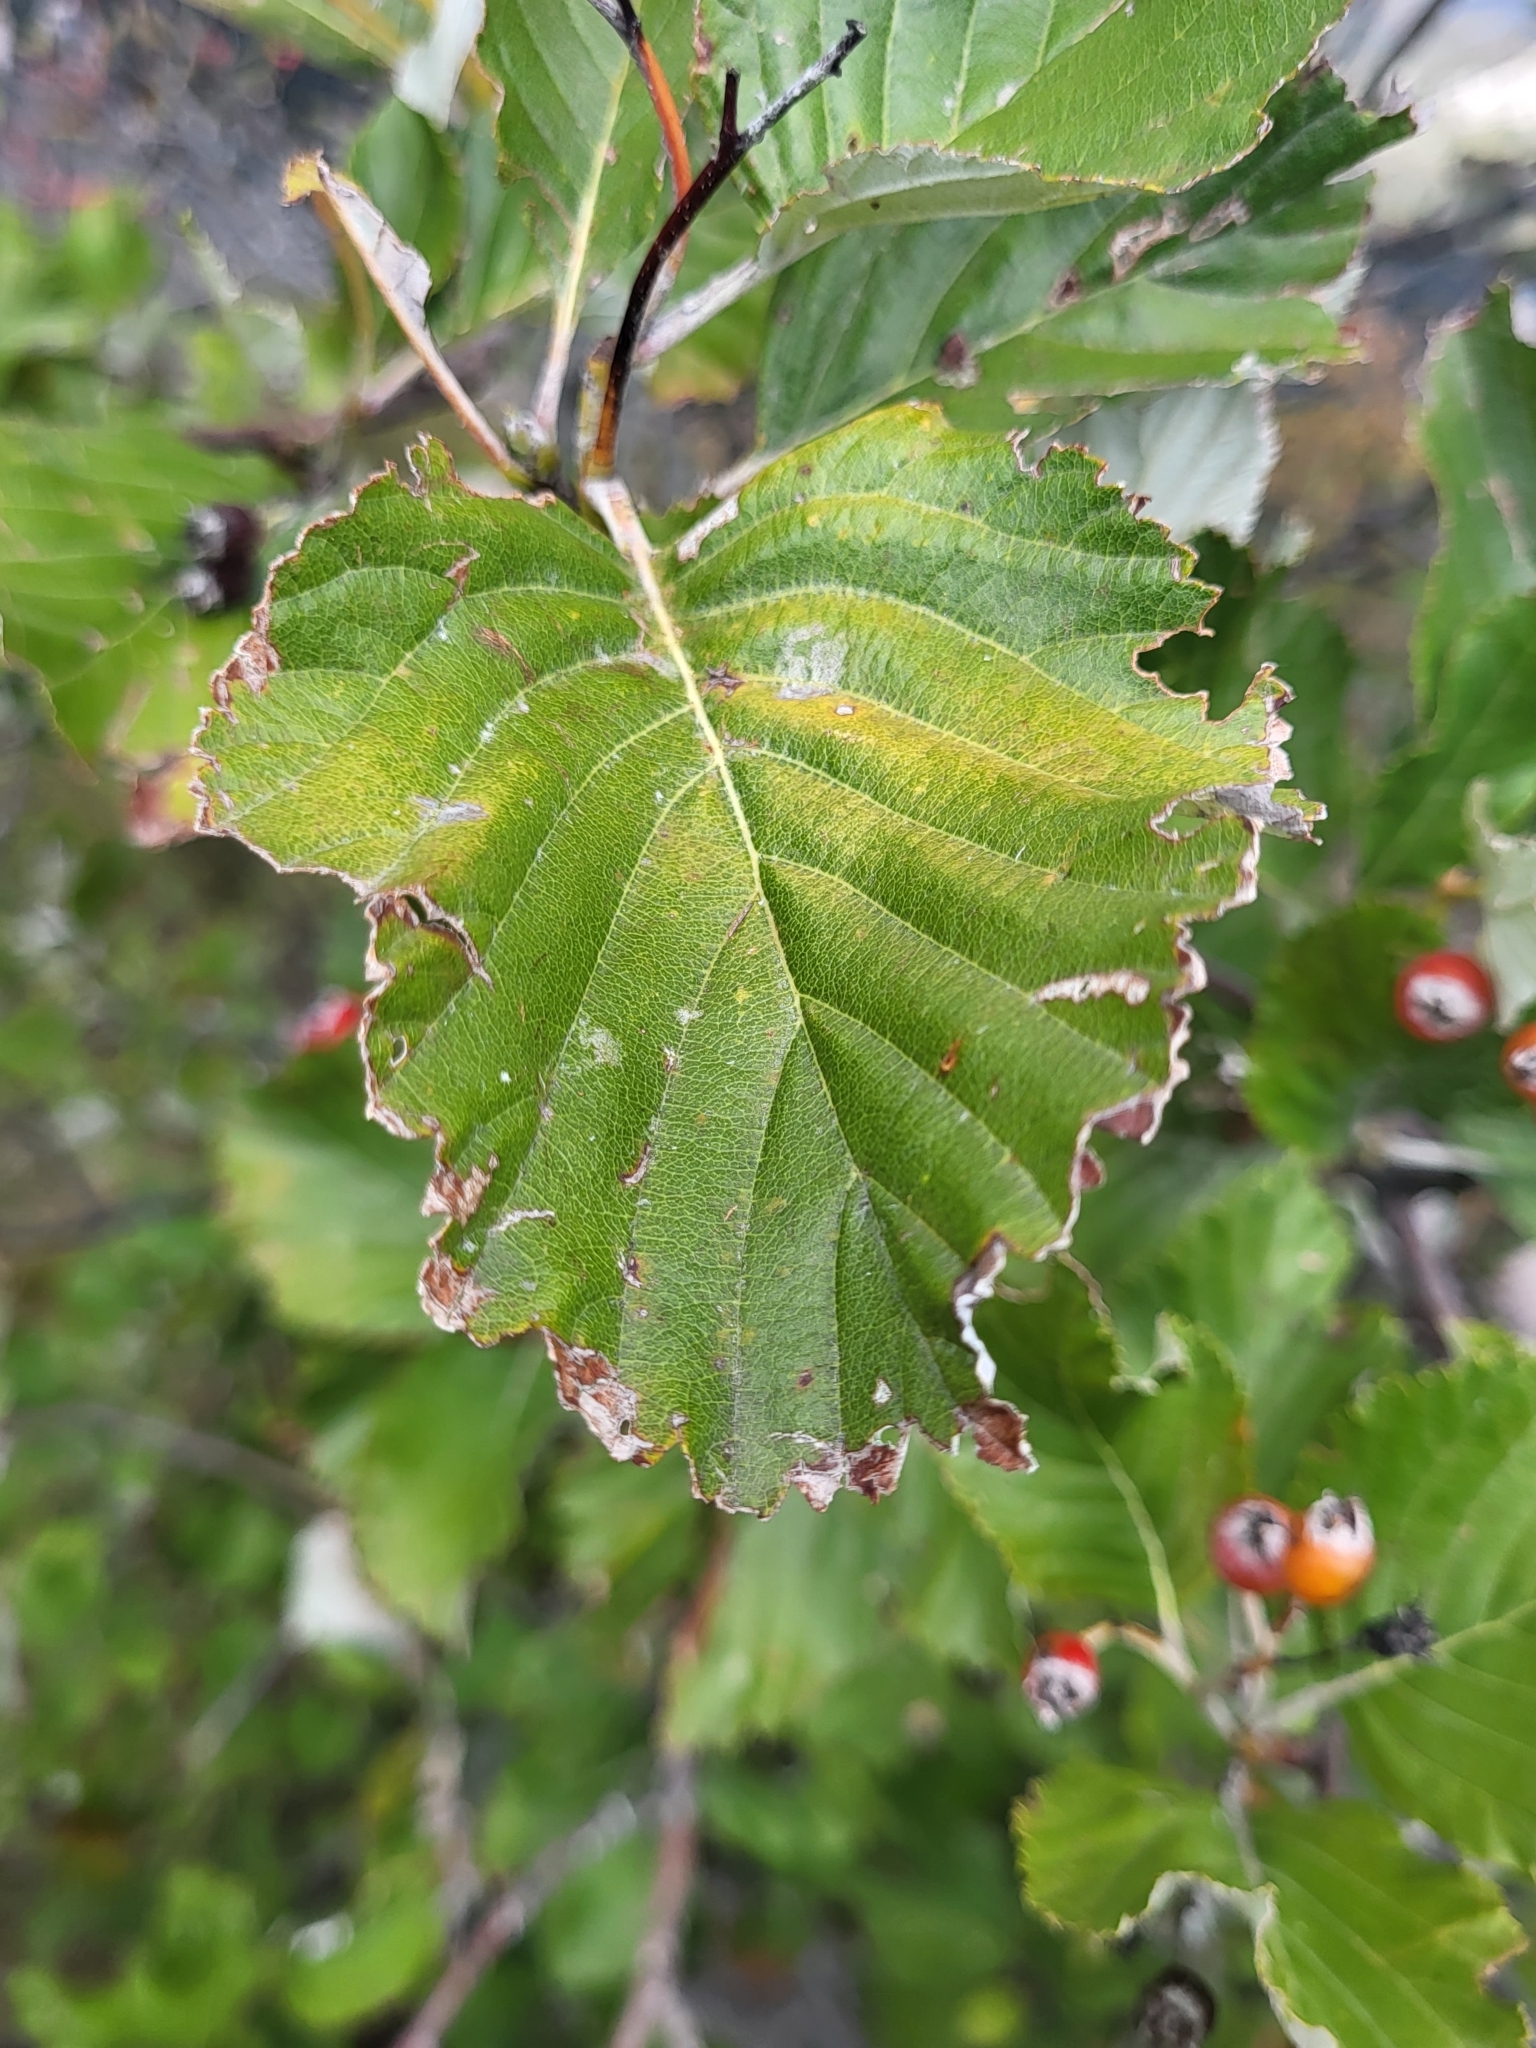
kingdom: Plantae
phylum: Tracheophyta
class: Magnoliopsida
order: Rosales
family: Rosaceae
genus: Aria
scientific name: Aria edulis
